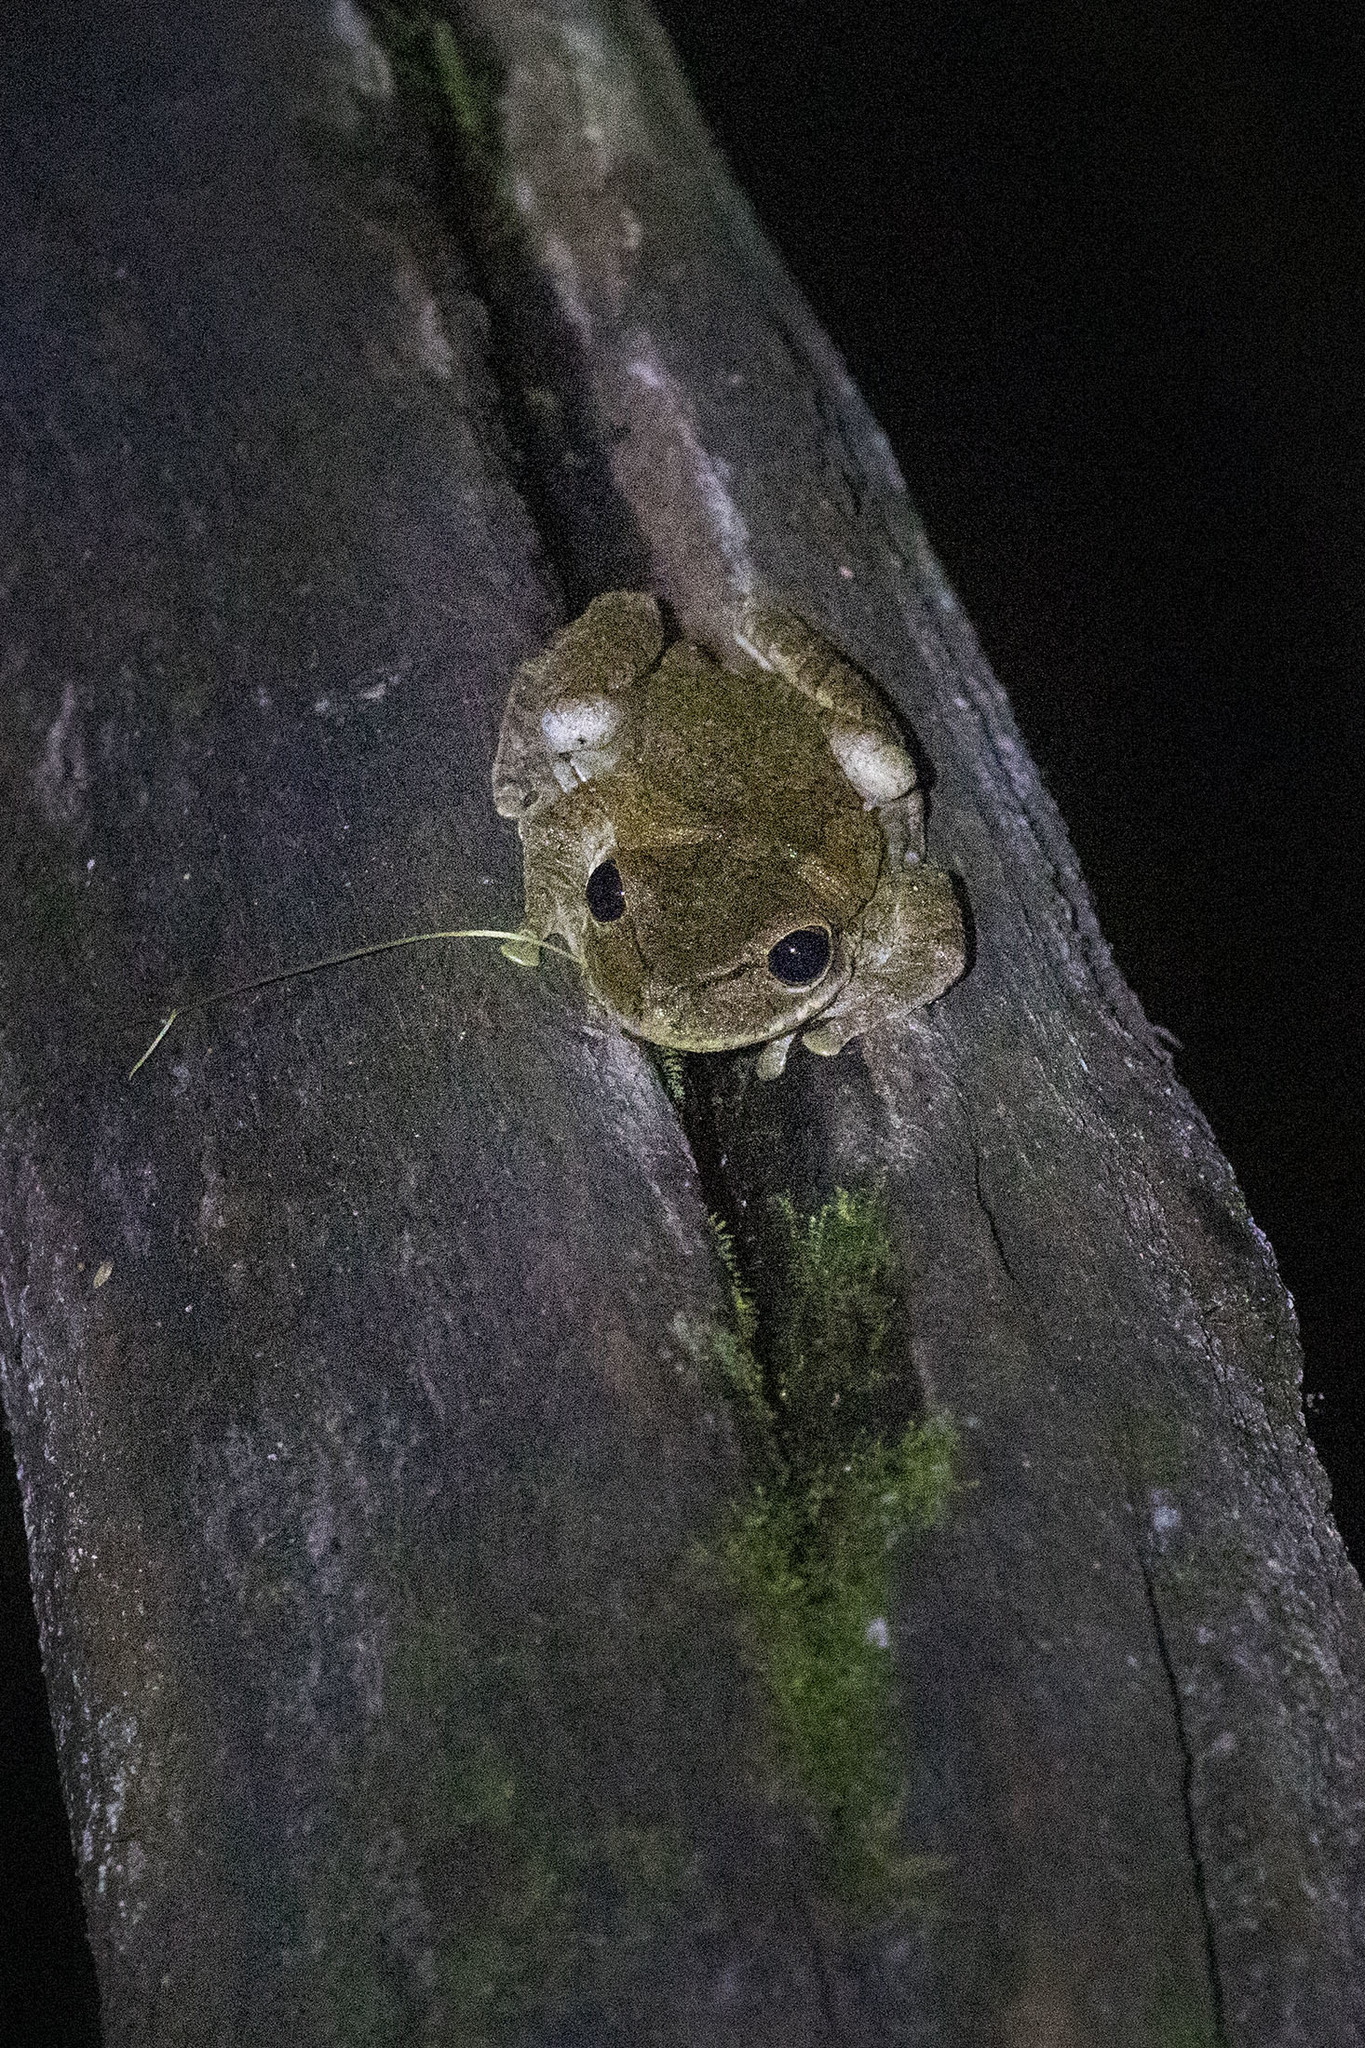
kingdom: Animalia
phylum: Chordata
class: Amphibia
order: Anura
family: Hylidae
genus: Osteopilus
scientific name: Osteopilus dominicensis
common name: Hispaniolan common treefrog
